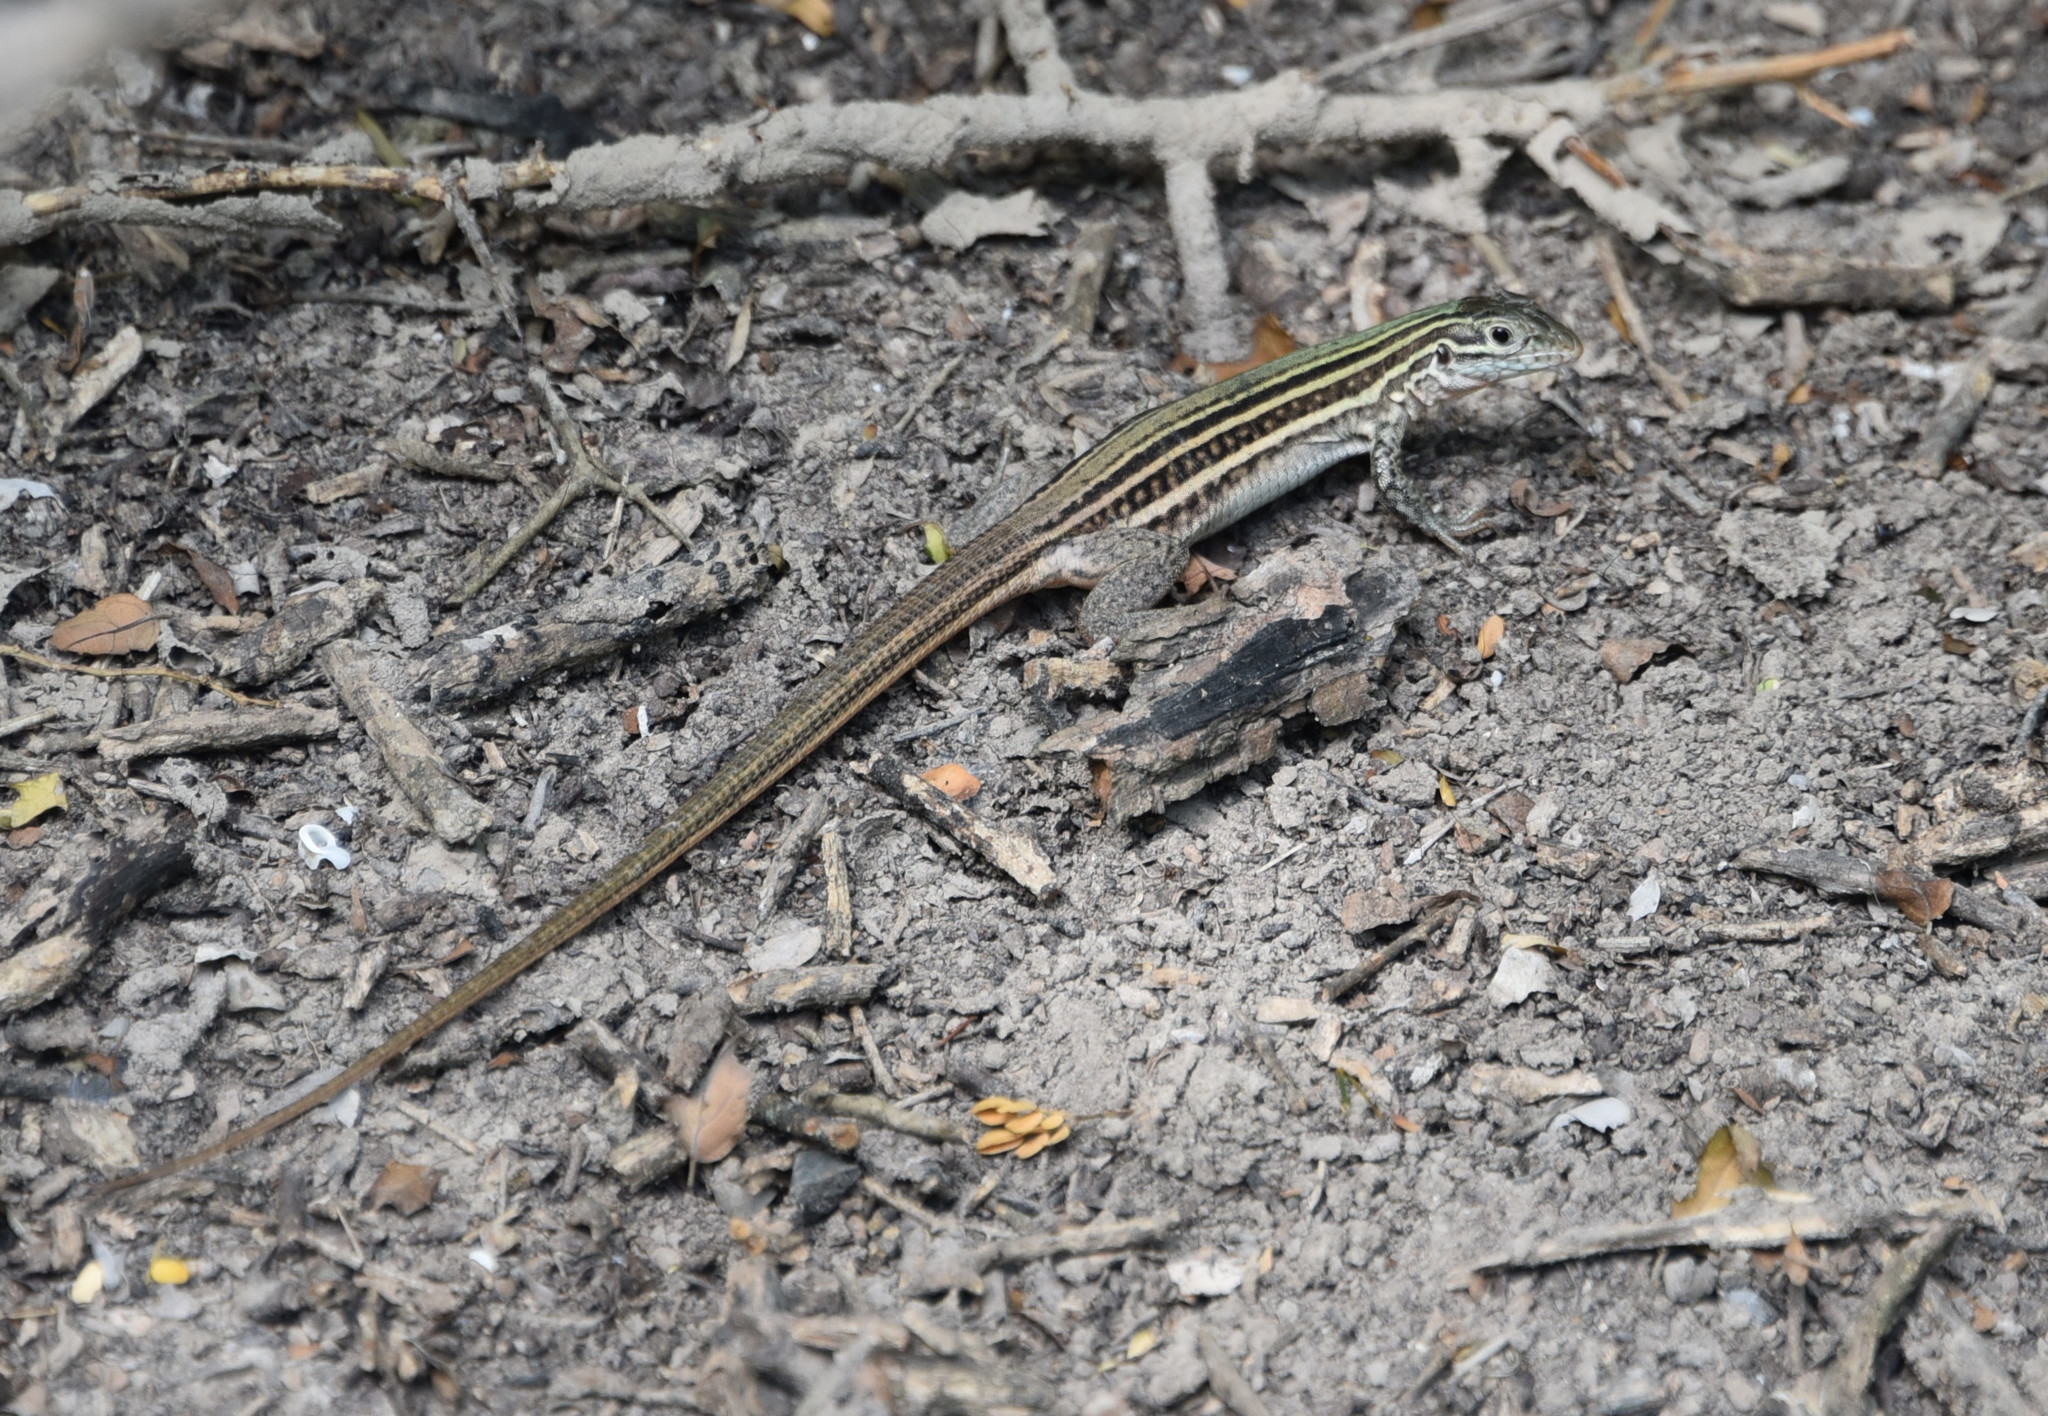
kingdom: Animalia
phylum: Chordata
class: Squamata
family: Teiidae
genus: Aspidoscelis
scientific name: Aspidoscelis gularis
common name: Eastern spotted whiptail
